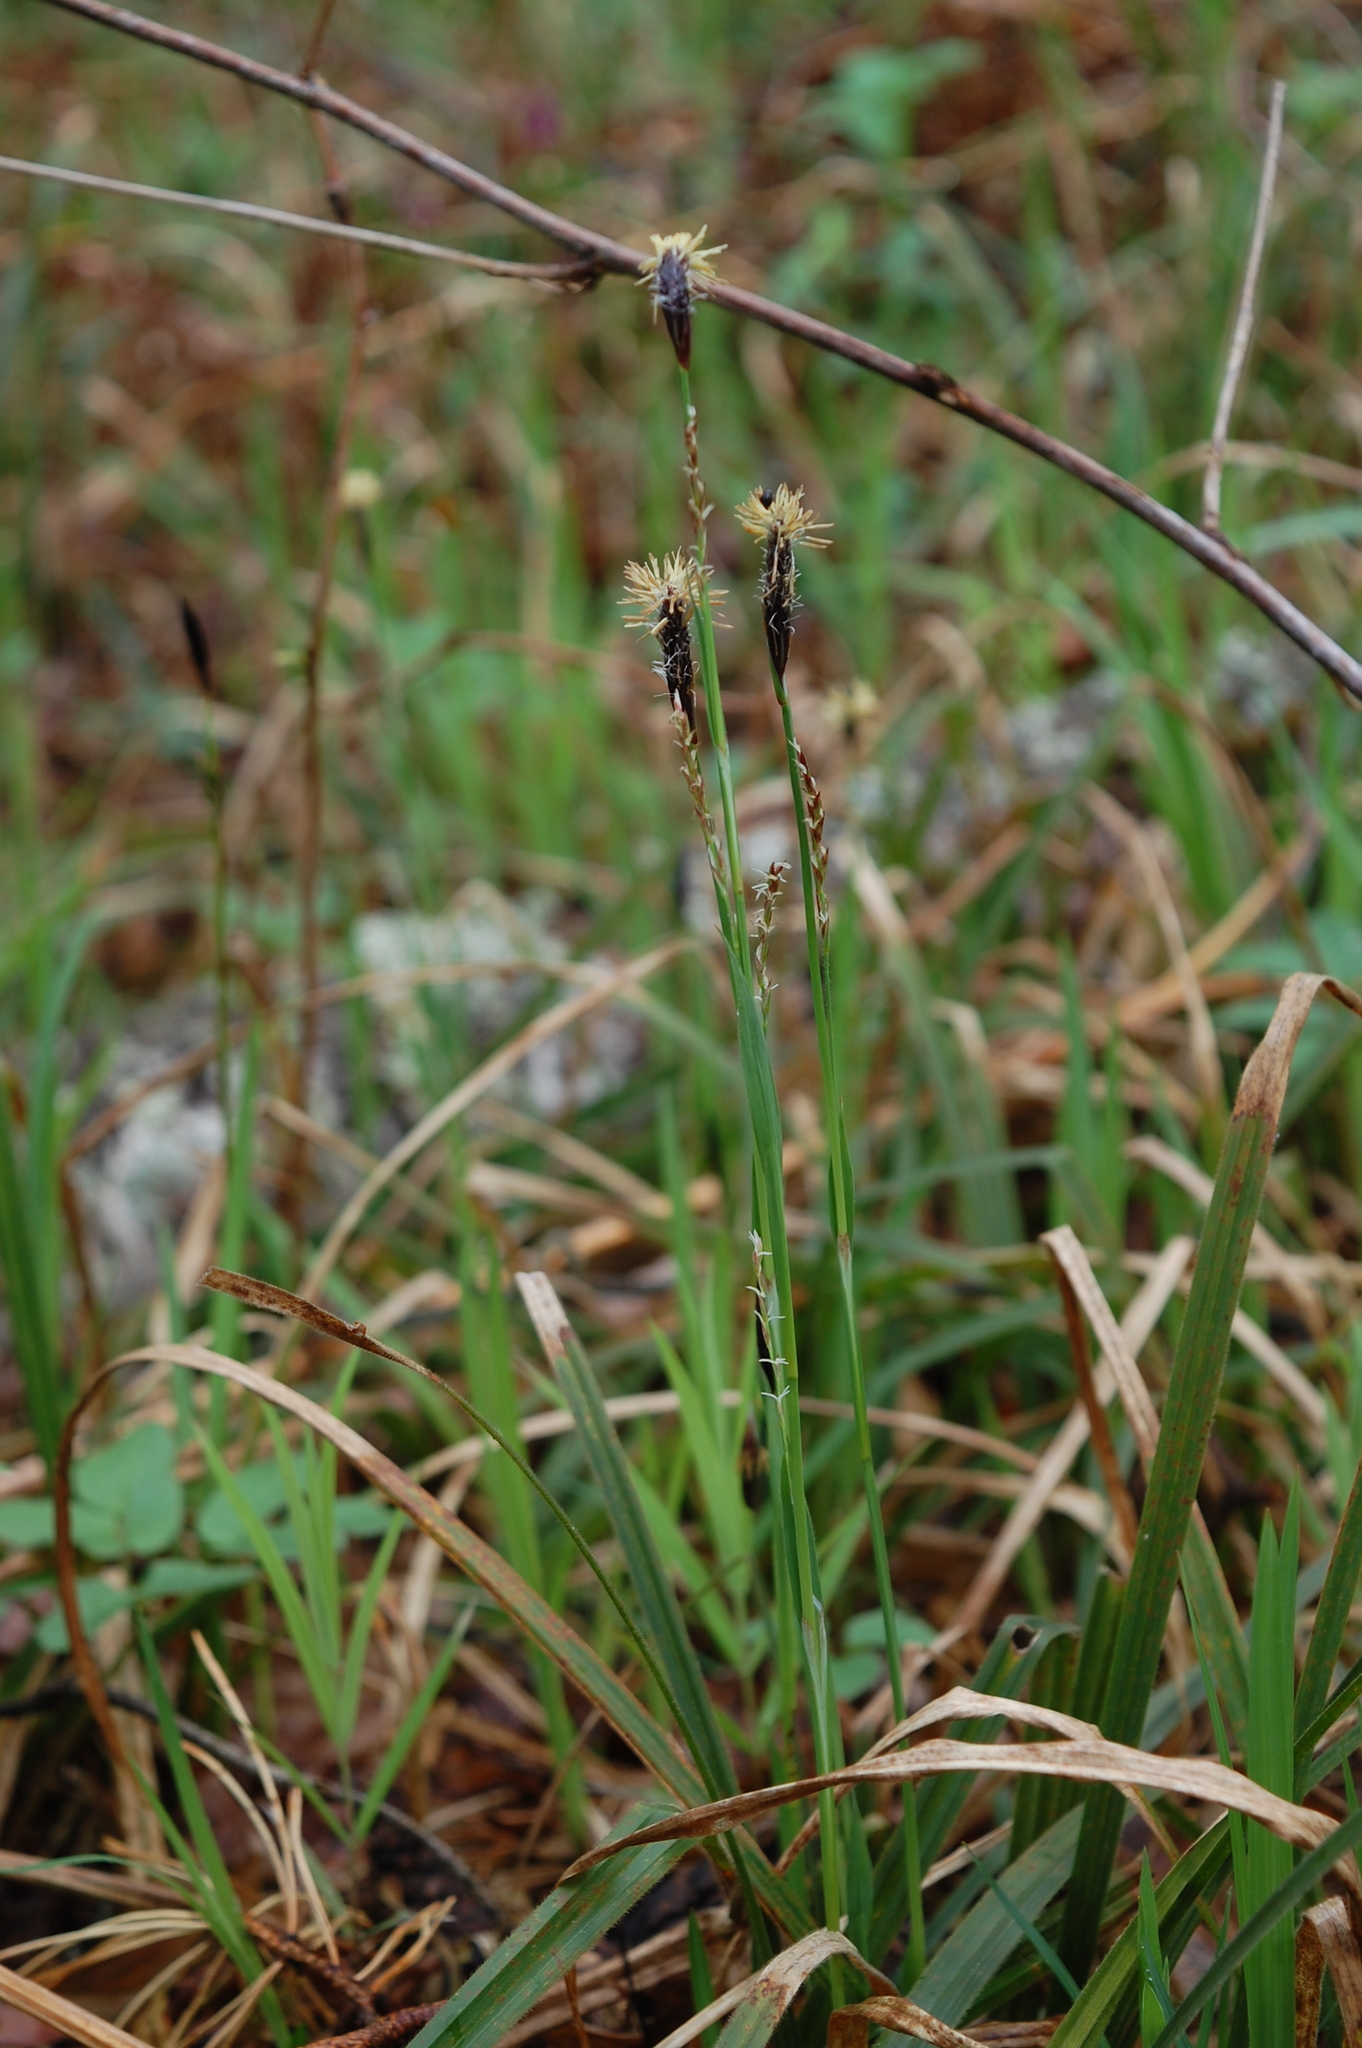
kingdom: Plantae
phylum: Tracheophyta
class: Liliopsida
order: Poales
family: Cyperaceae
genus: Carex
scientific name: Carex pilosa
